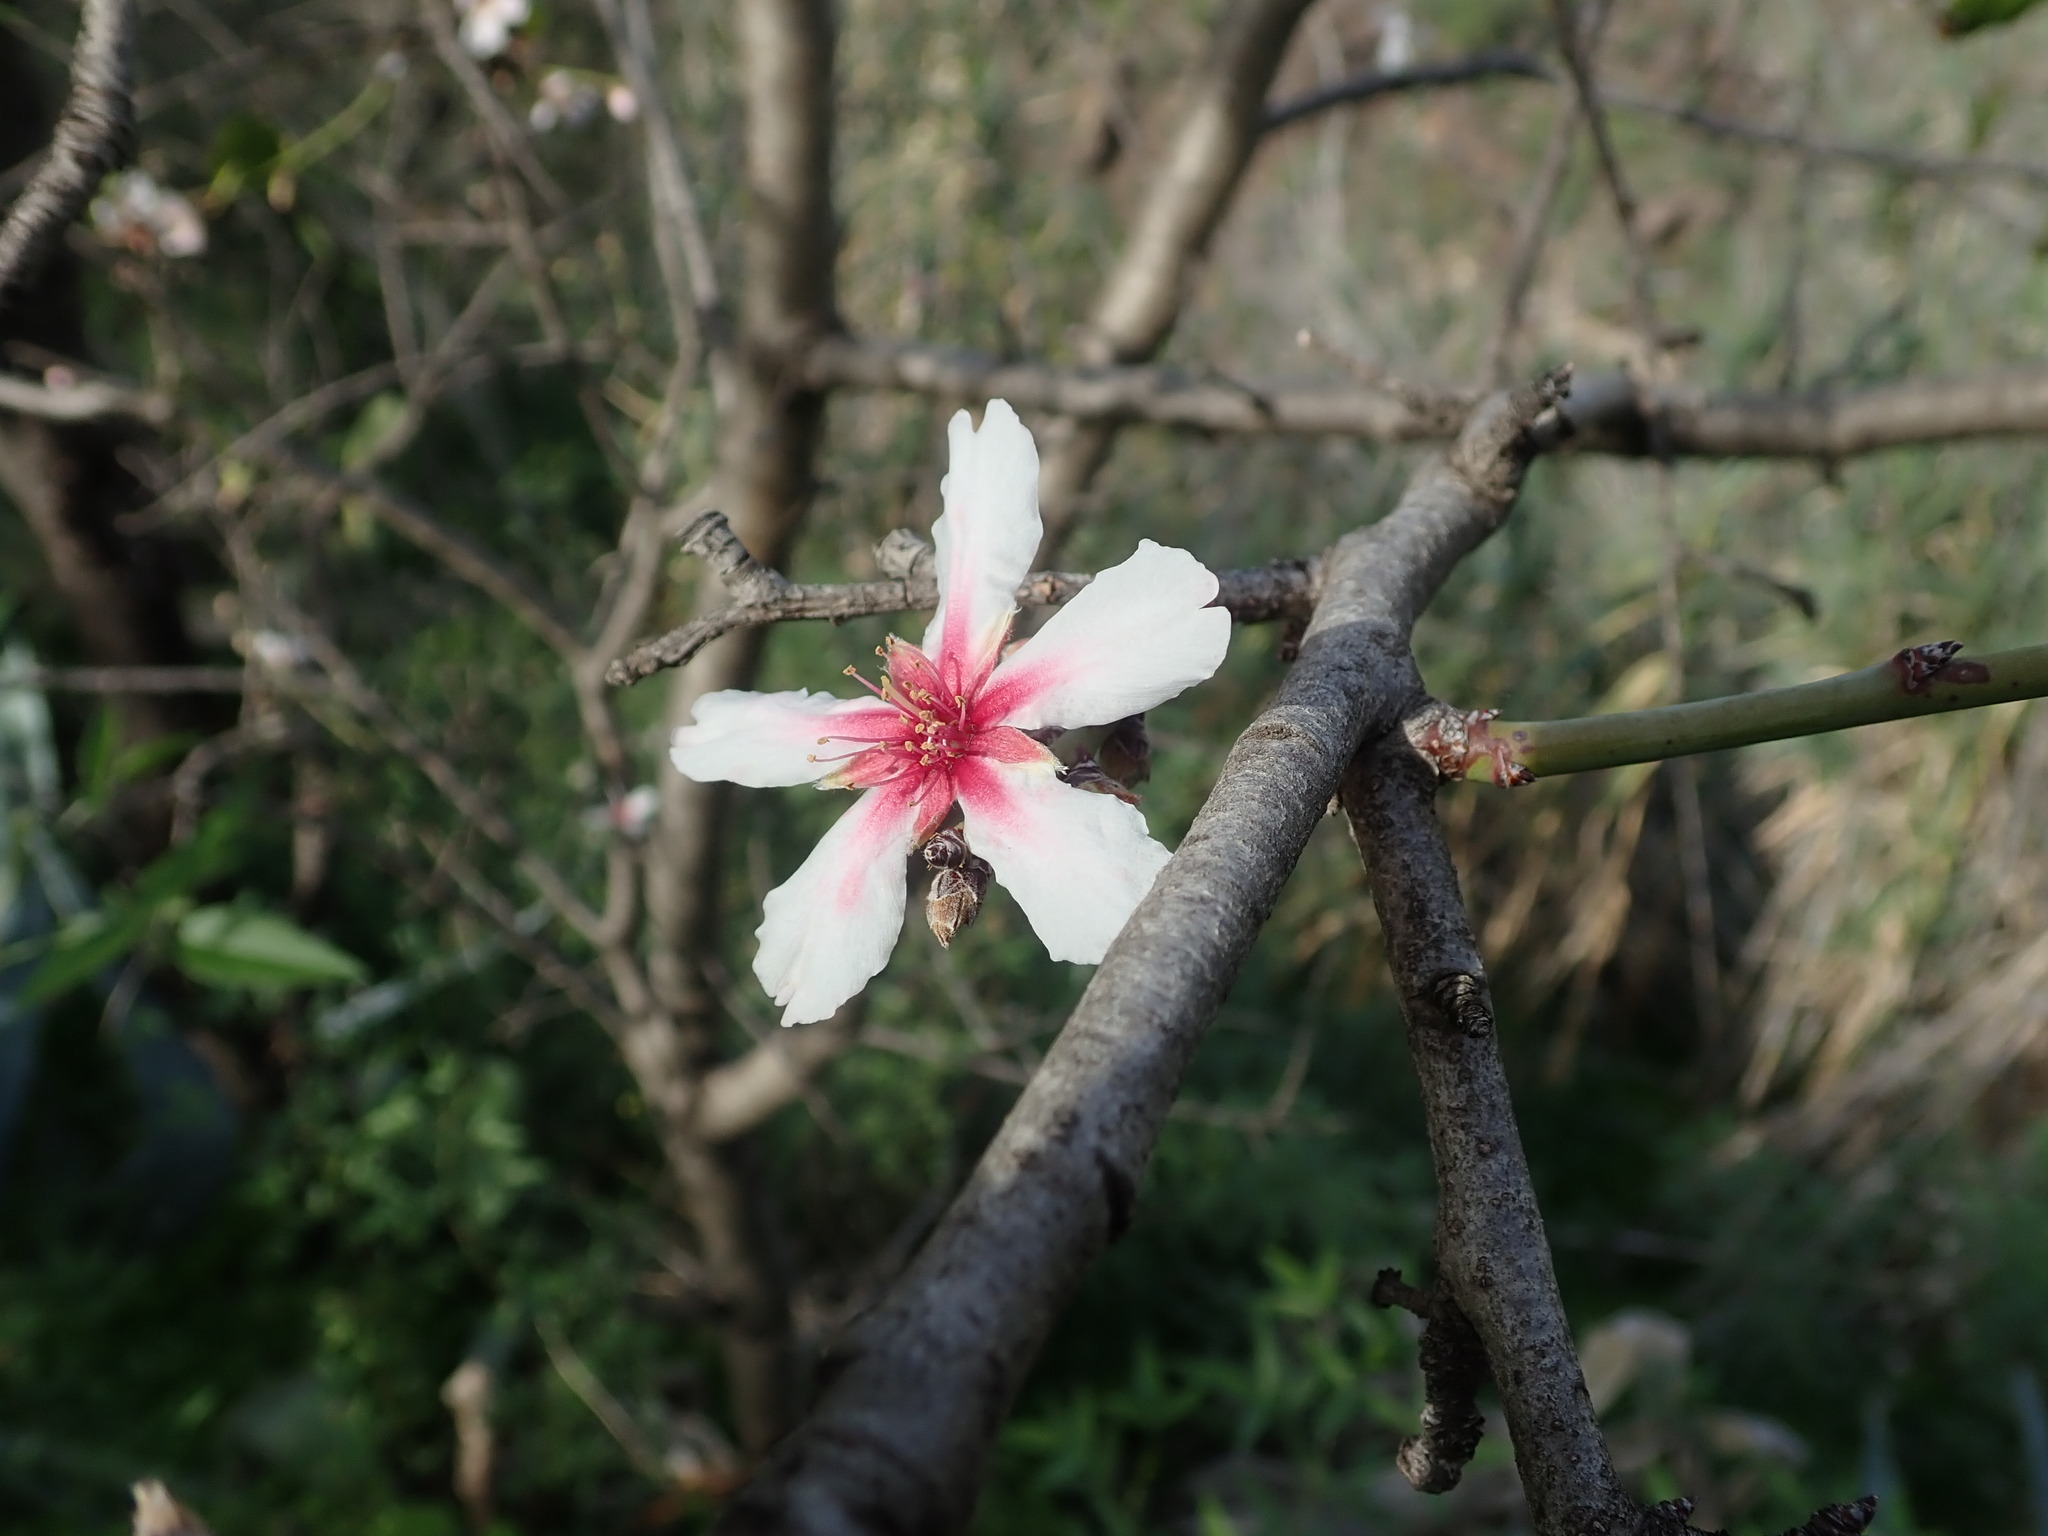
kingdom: Plantae
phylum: Tracheophyta
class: Magnoliopsida
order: Rosales
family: Rosaceae
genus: Prunus
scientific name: Prunus amygdalus
